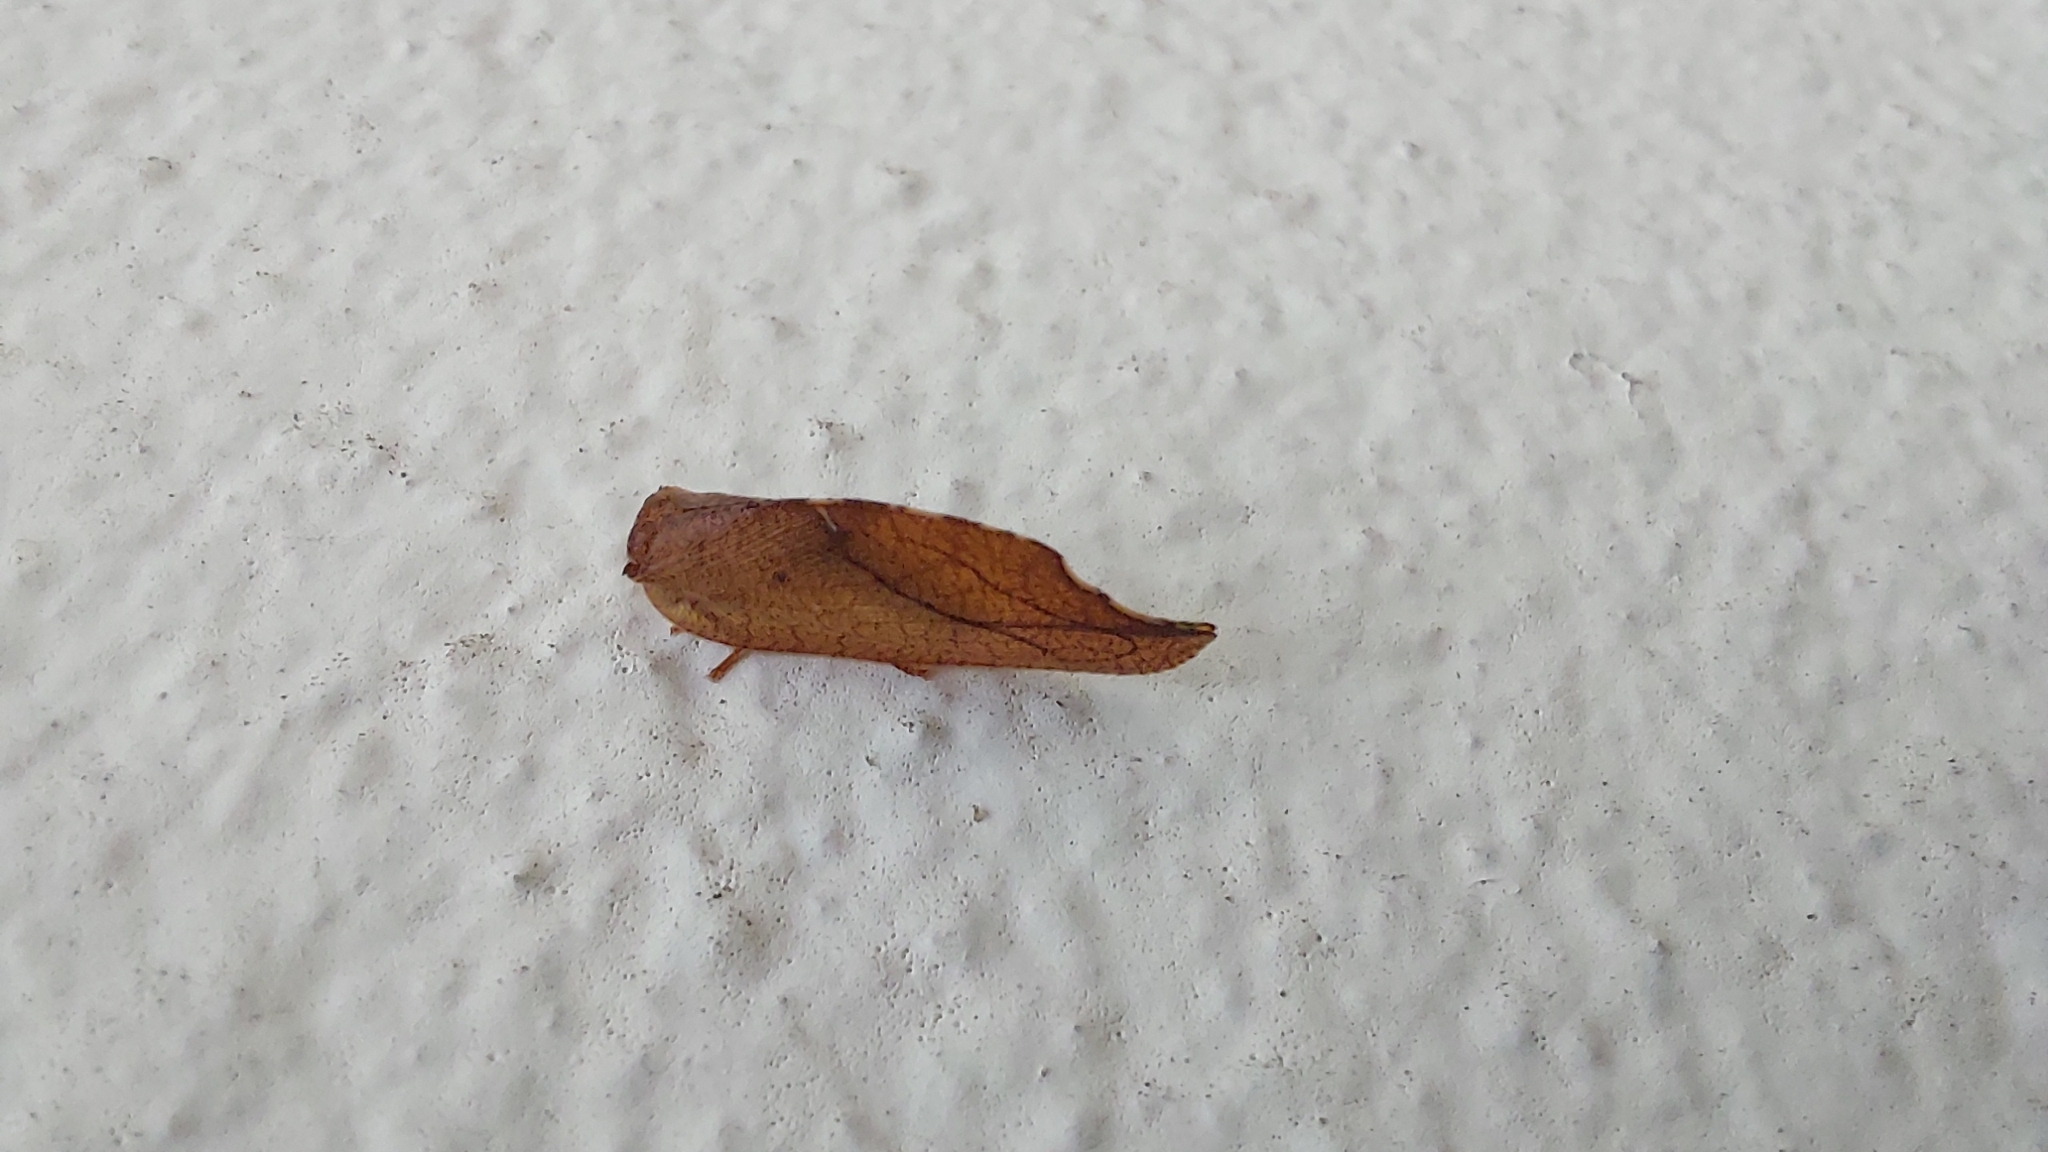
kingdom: Animalia
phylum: Arthropoda
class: Insecta
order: Neuroptera
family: Hemerobiidae
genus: Drepanepteryx
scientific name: Drepanepteryx phalaenoides
